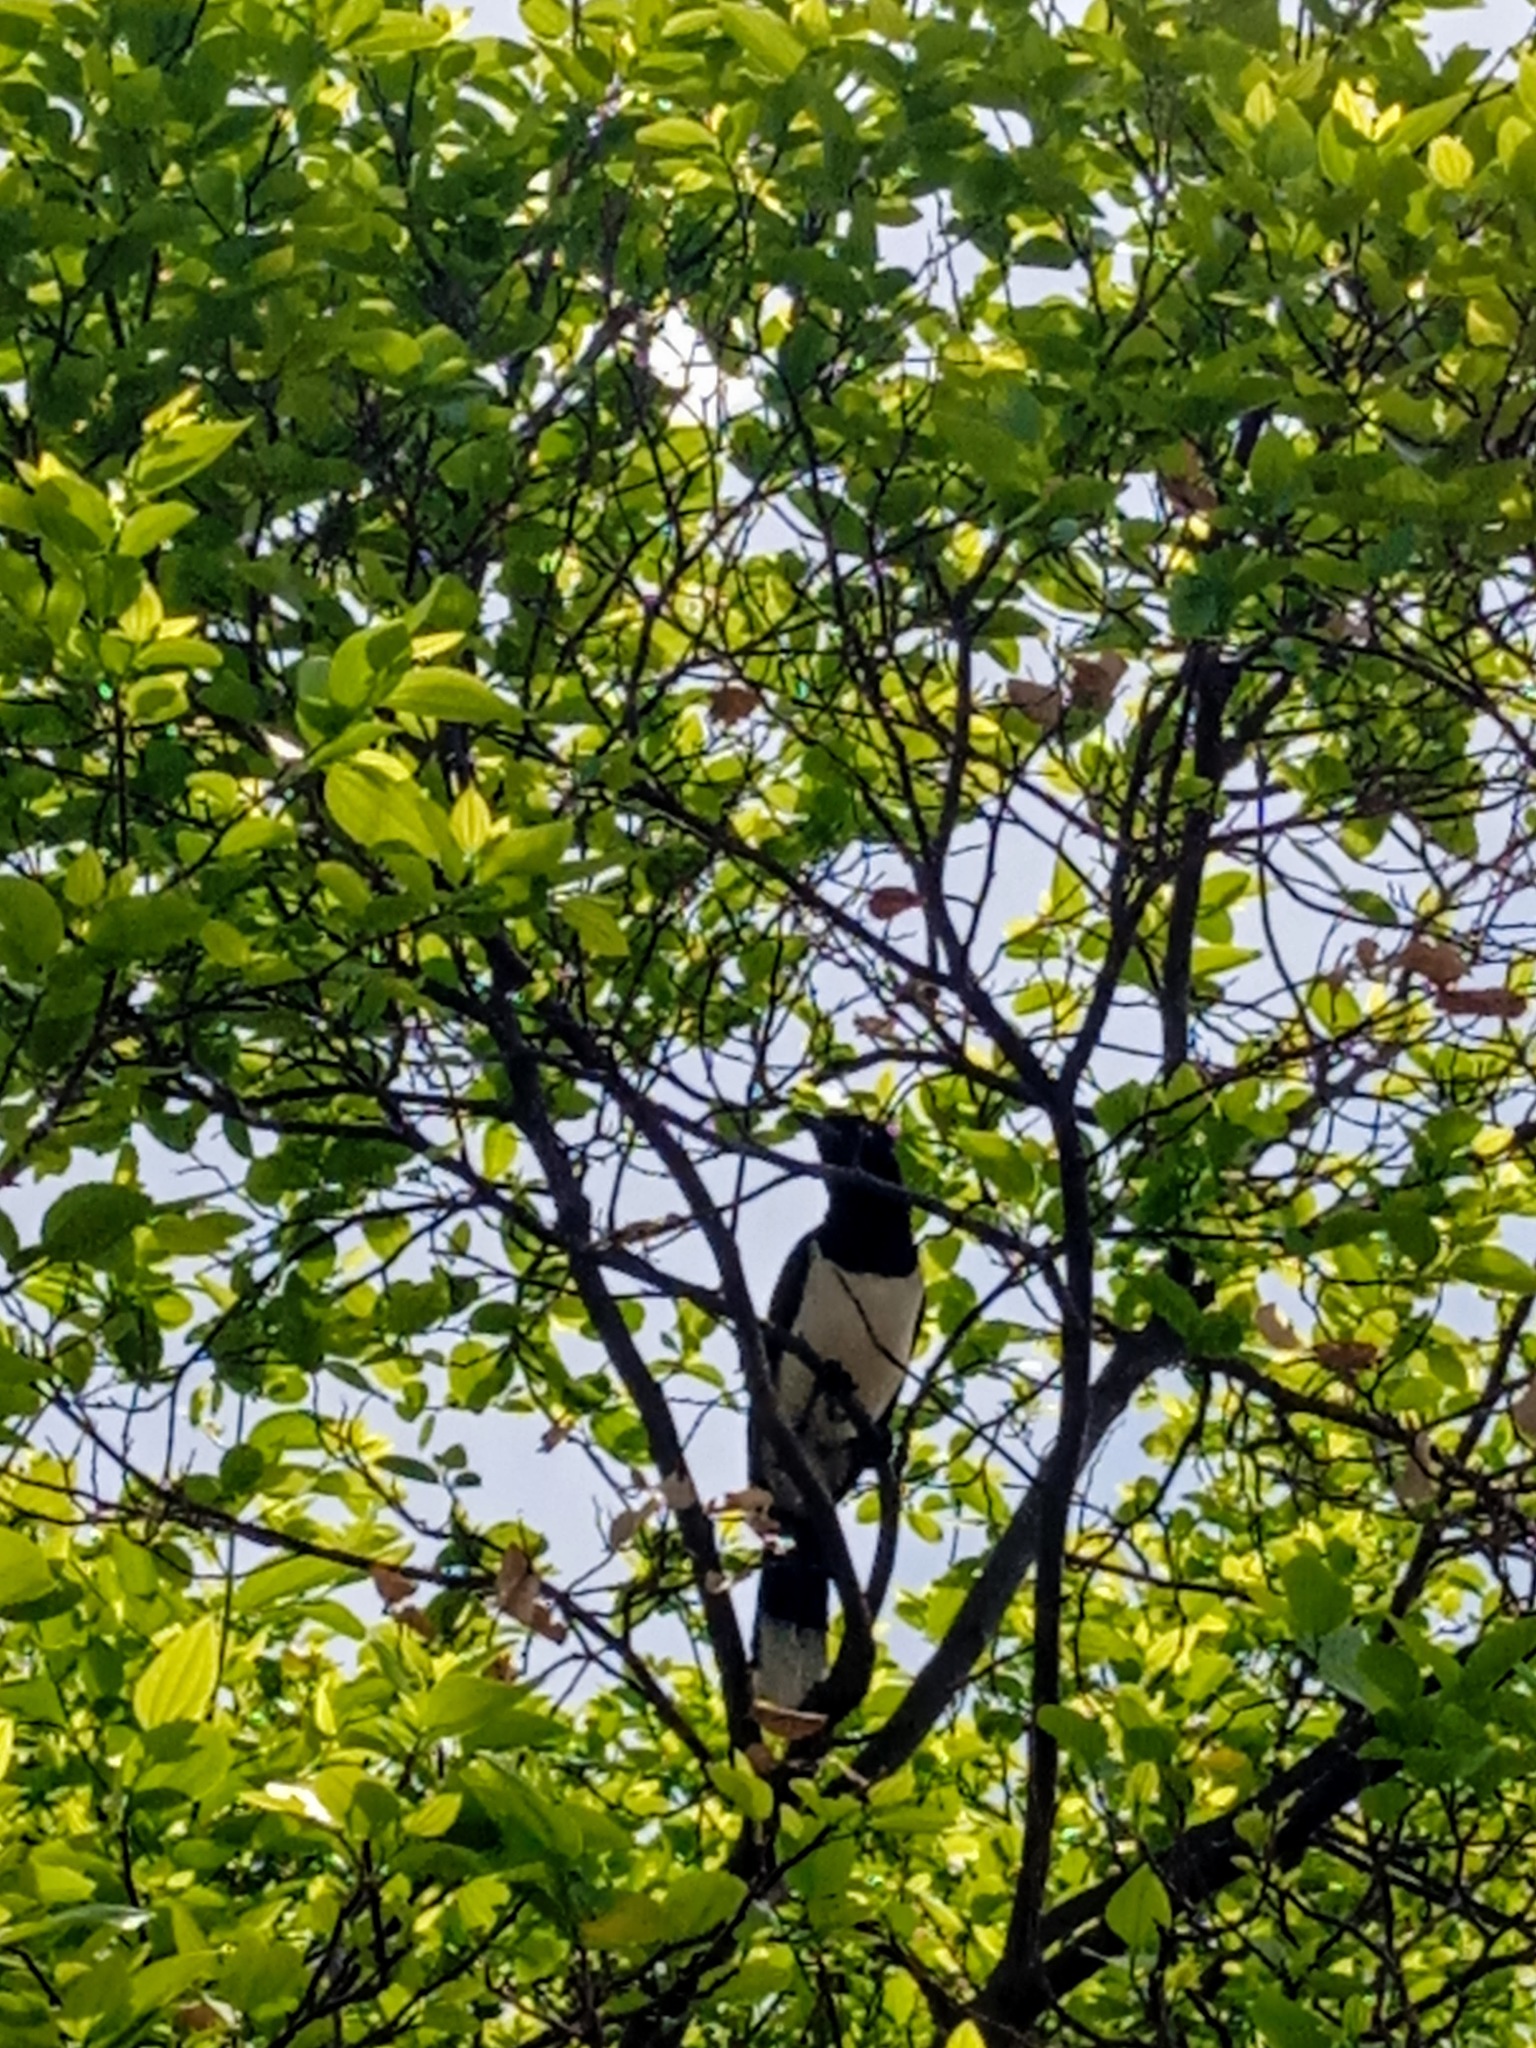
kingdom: Animalia
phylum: Chordata
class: Aves
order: Passeriformes
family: Corvidae
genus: Cyanocorax
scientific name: Cyanocorax cyanopogon
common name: White-naped jay
